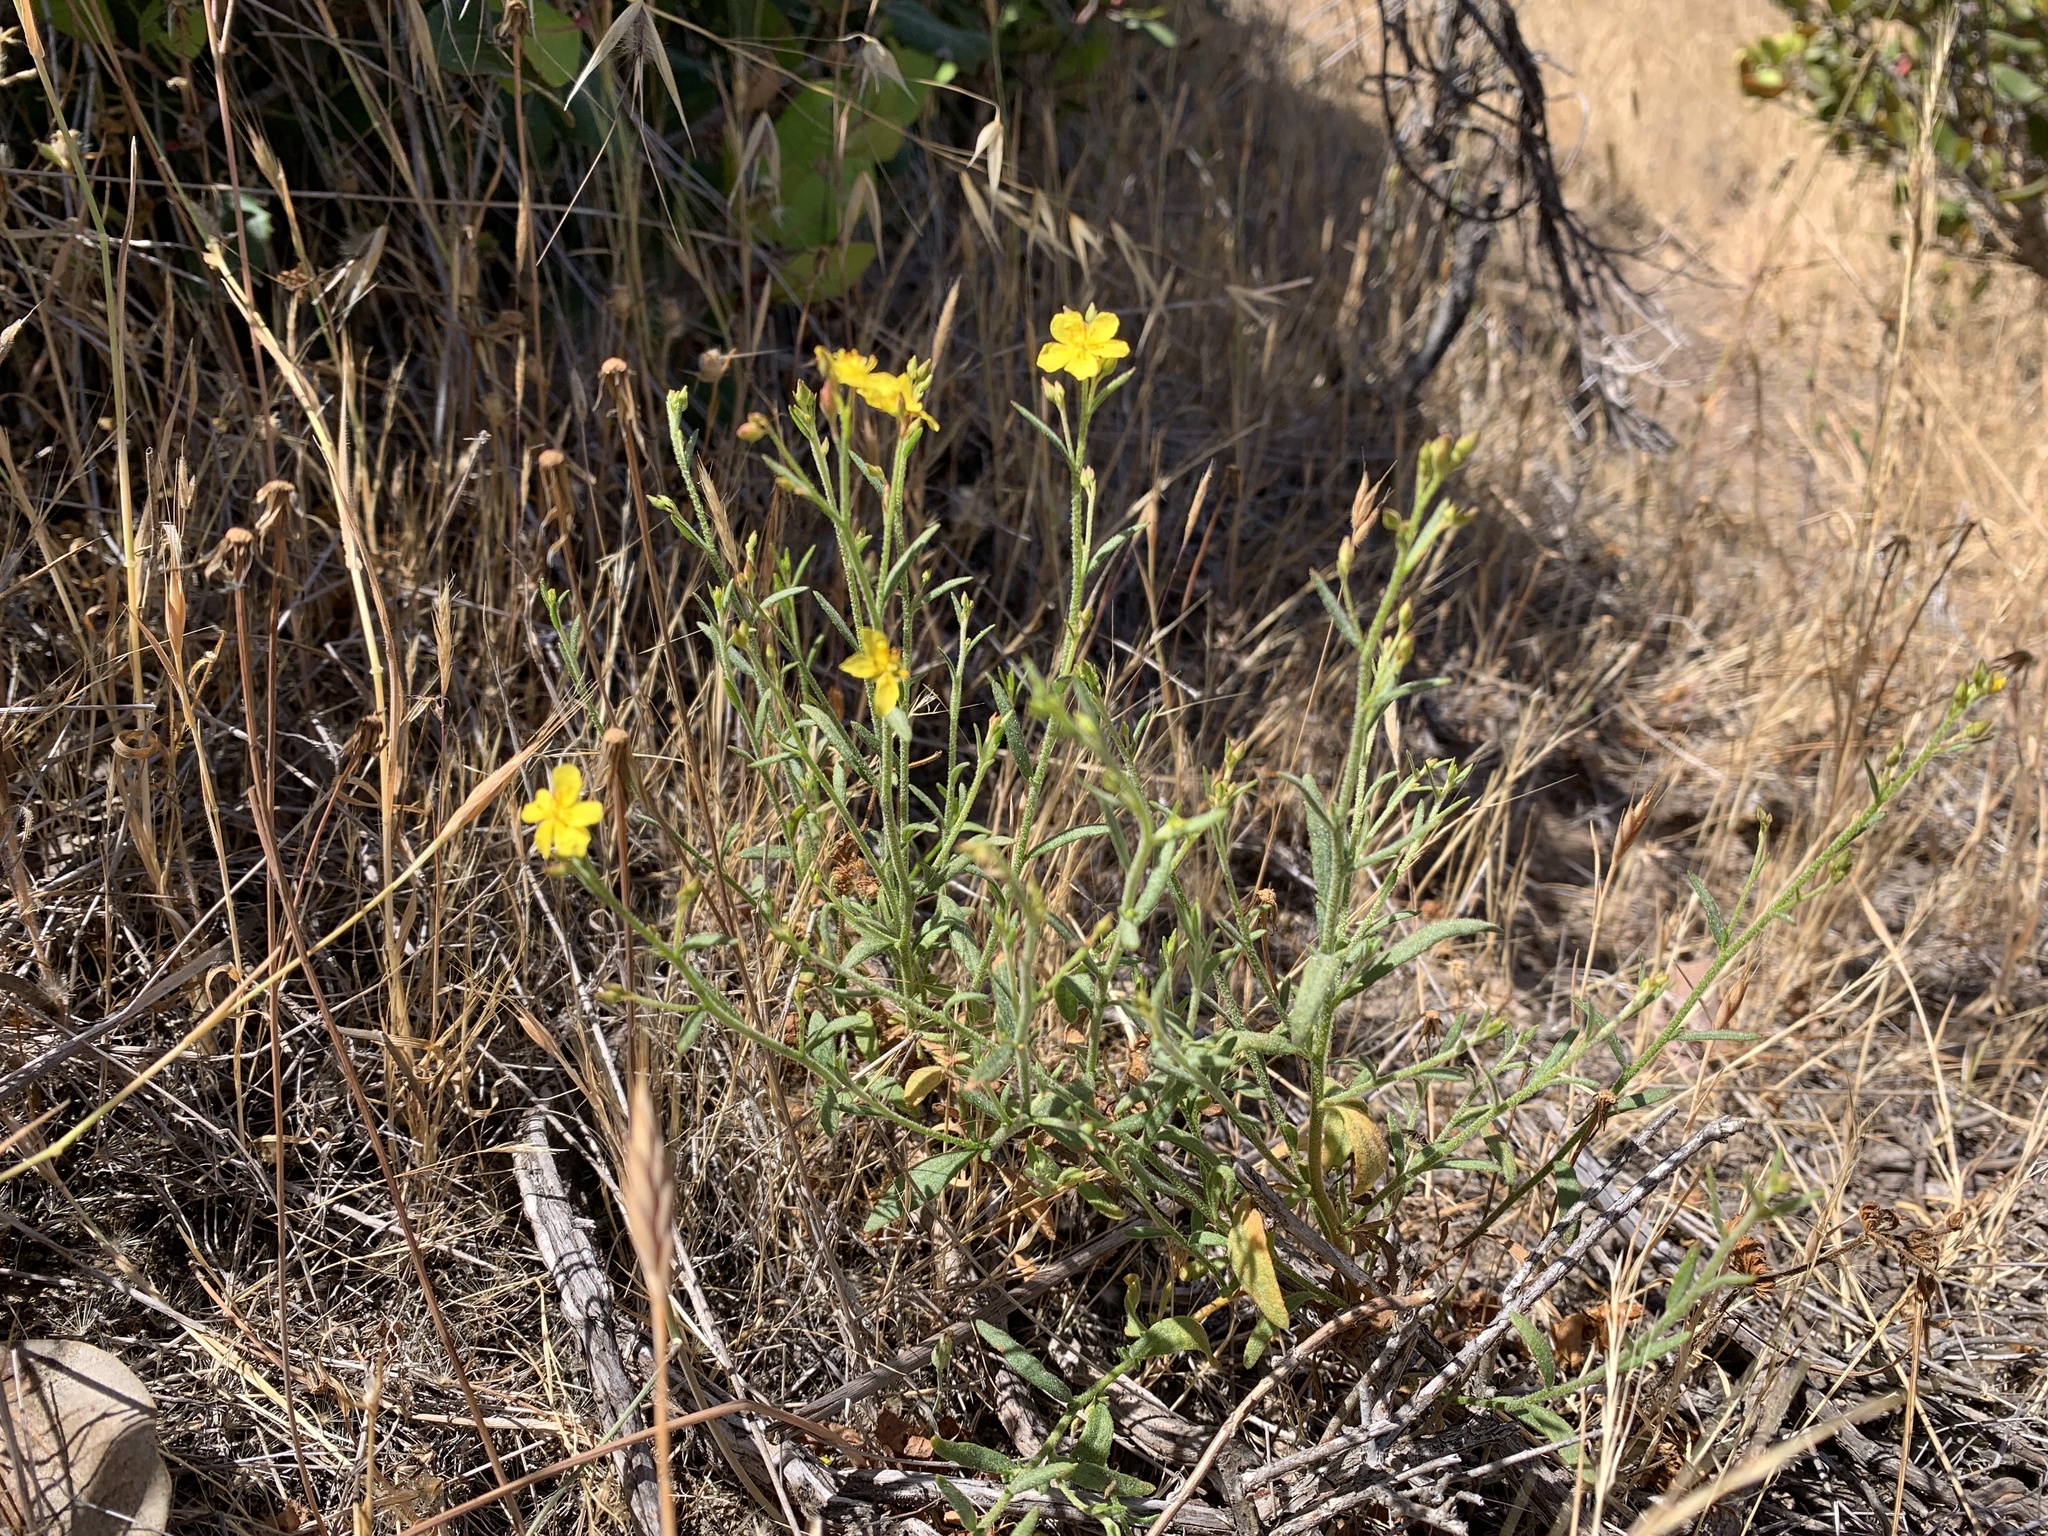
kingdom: Plantae
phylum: Tracheophyta
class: Magnoliopsida
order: Malvales
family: Cistaceae
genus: Crocanthemum
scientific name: Crocanthemum scoparium
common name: Broom-rose
